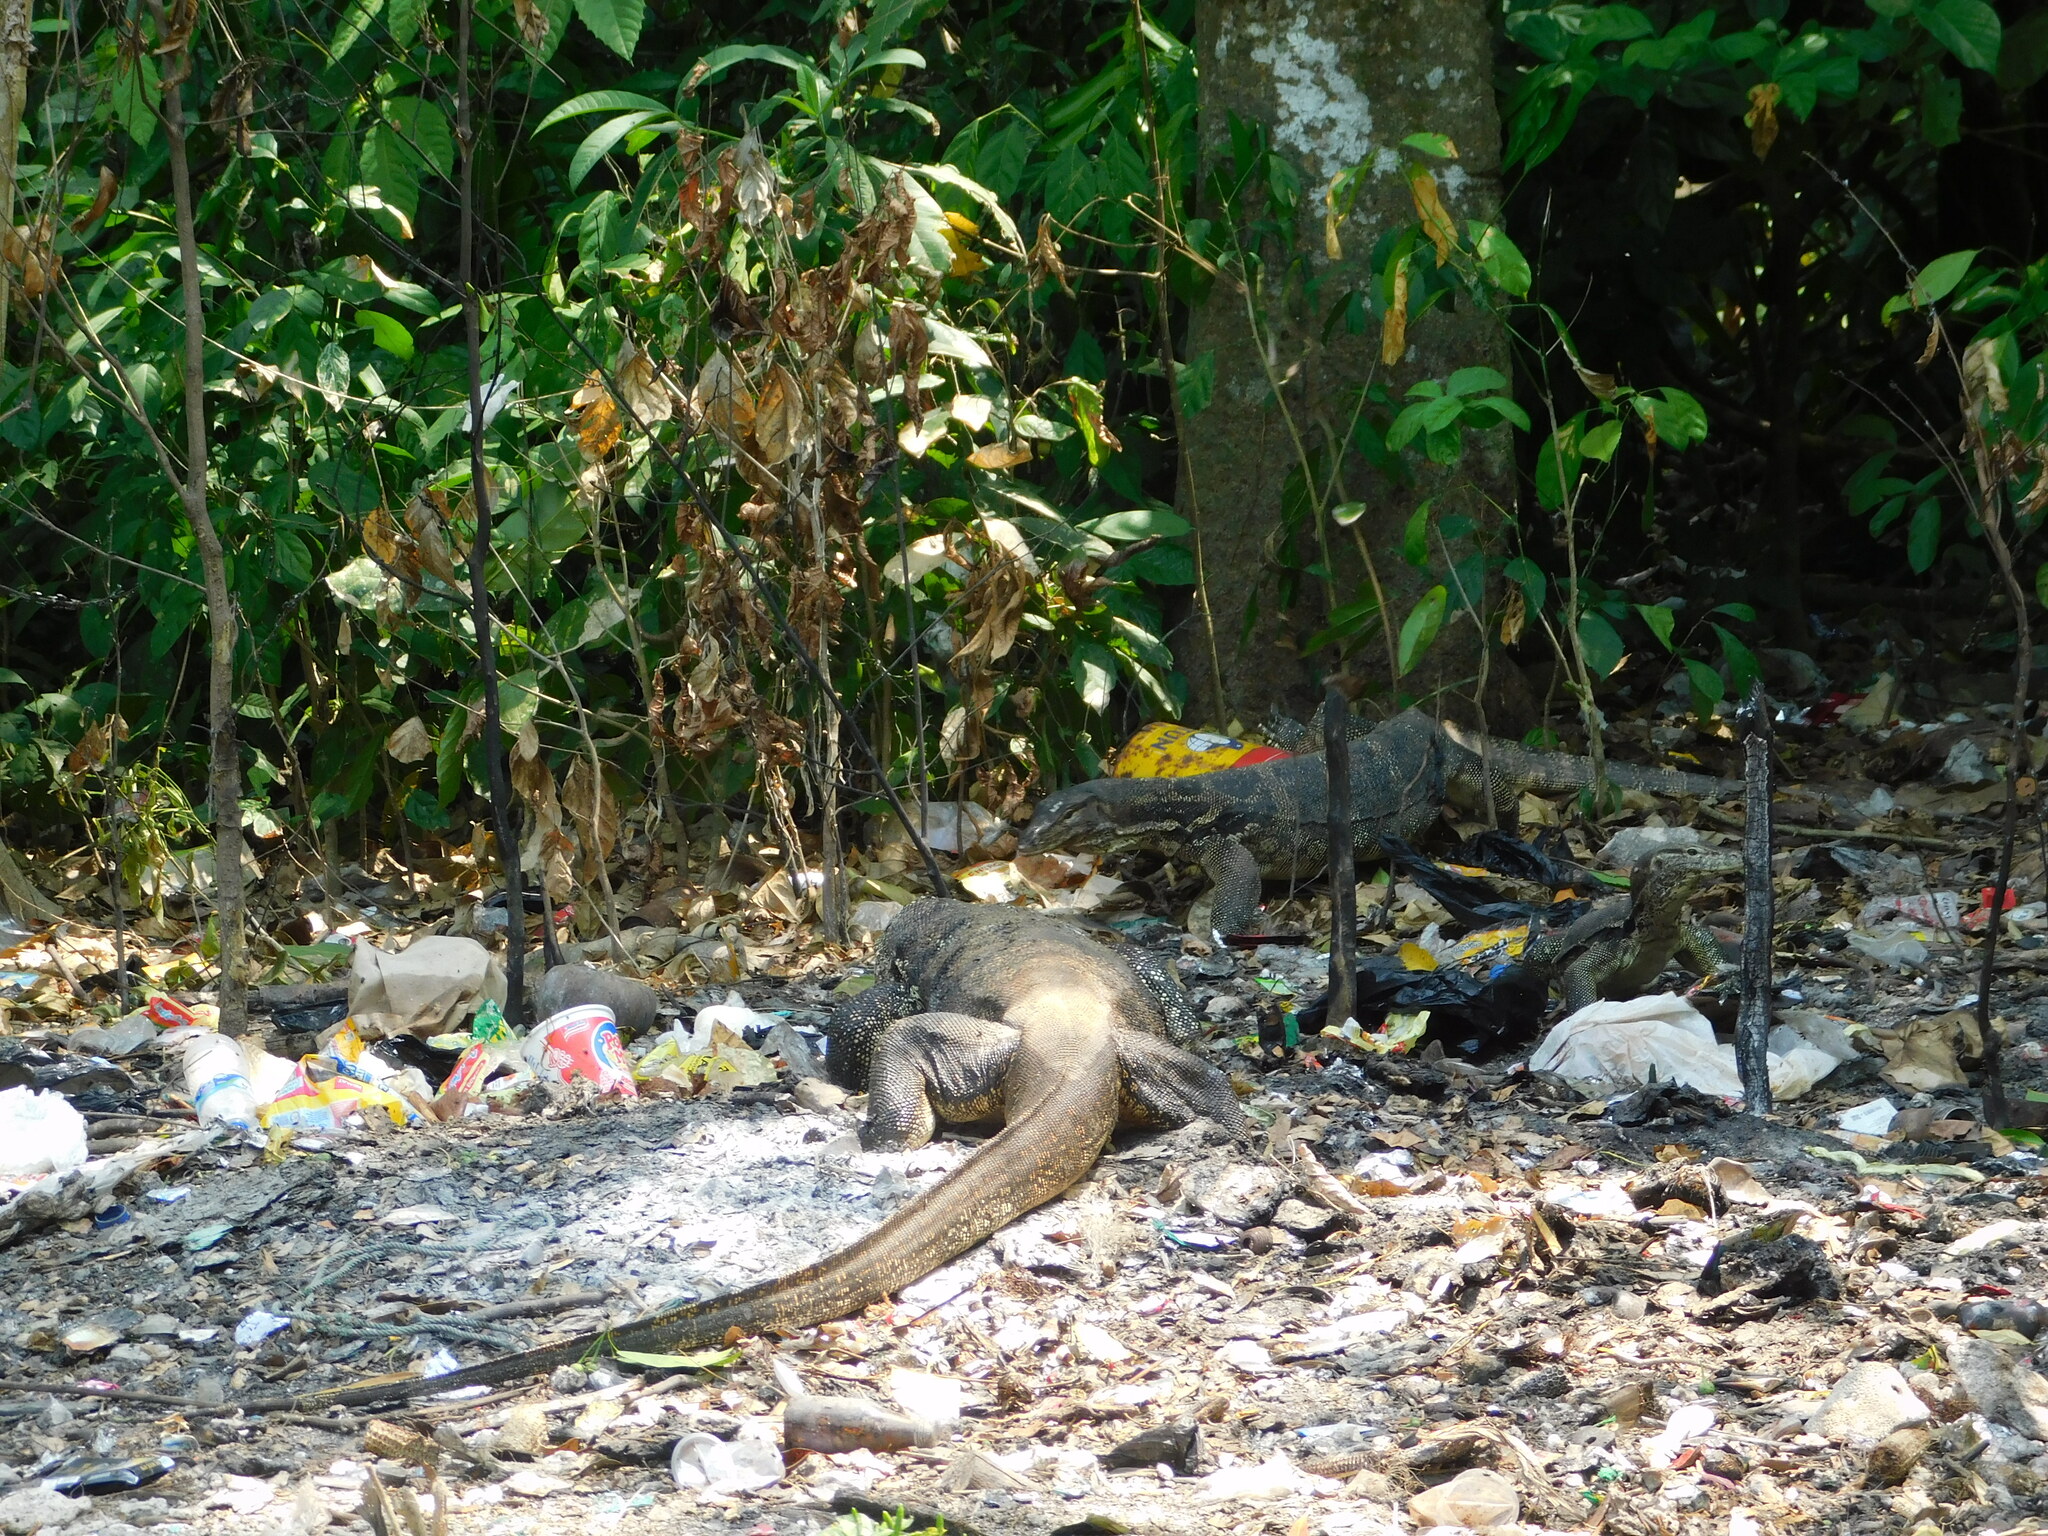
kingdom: Animalia
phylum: Chordata
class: Squamata
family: Varanidae
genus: Varanus
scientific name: Varanus salvator
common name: Common water monitor
